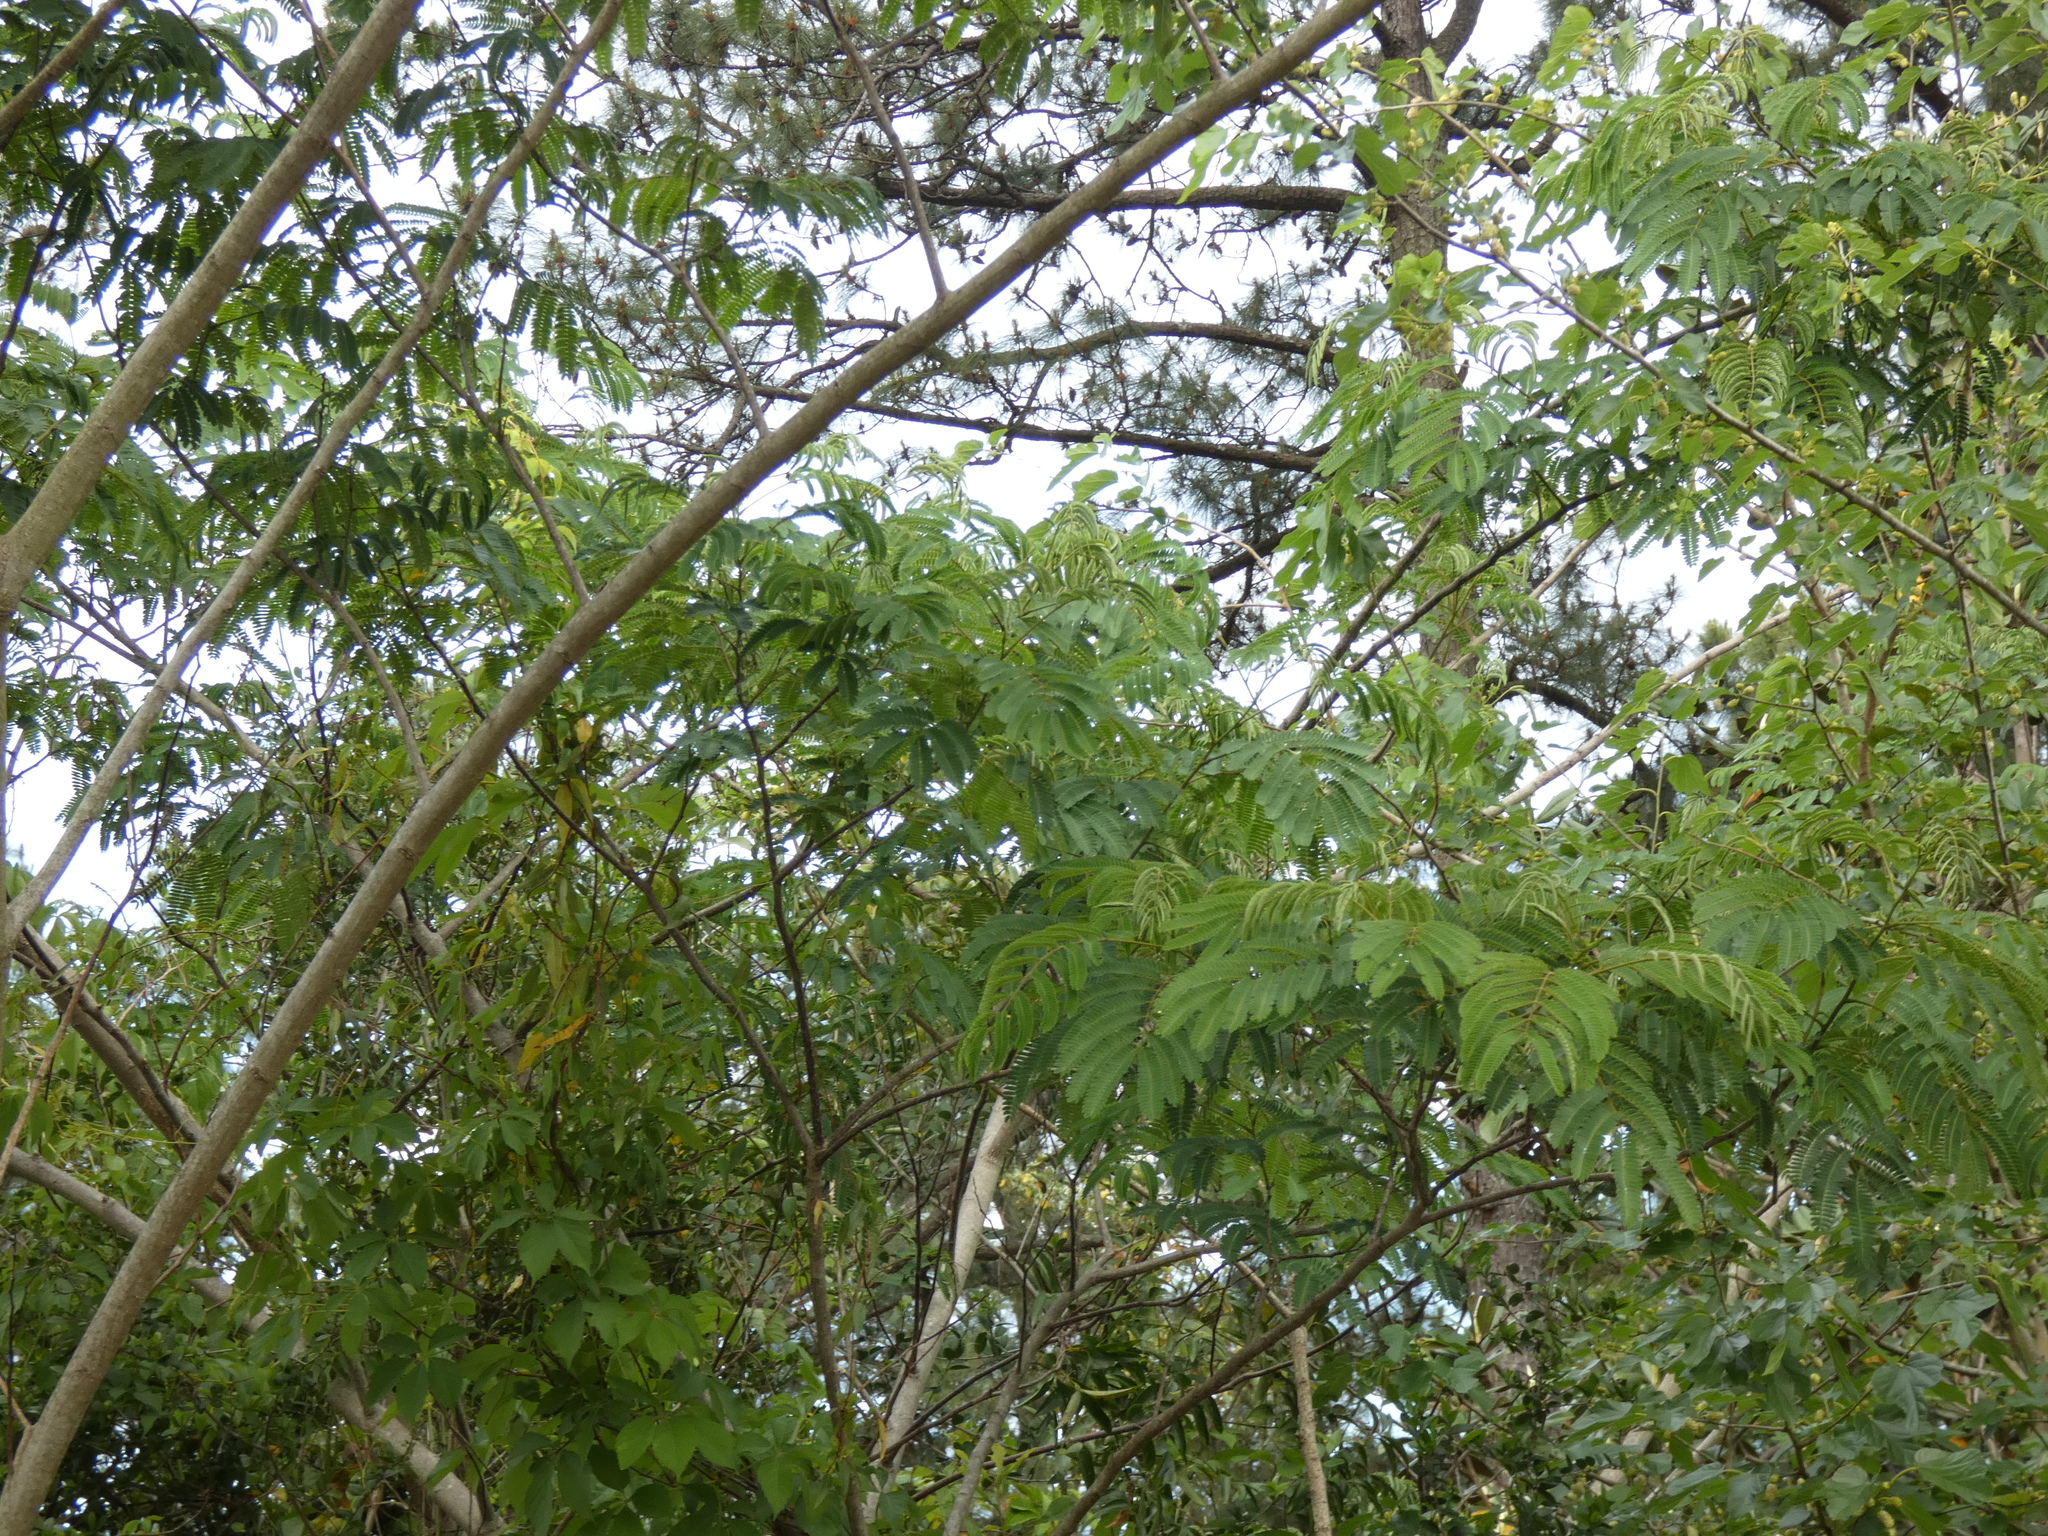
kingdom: Plantae
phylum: Tracheophyta
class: Magnoliopsida
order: Fabales
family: Fabaceae
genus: Albizia
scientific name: Albizia julibrissin
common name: Silktree
